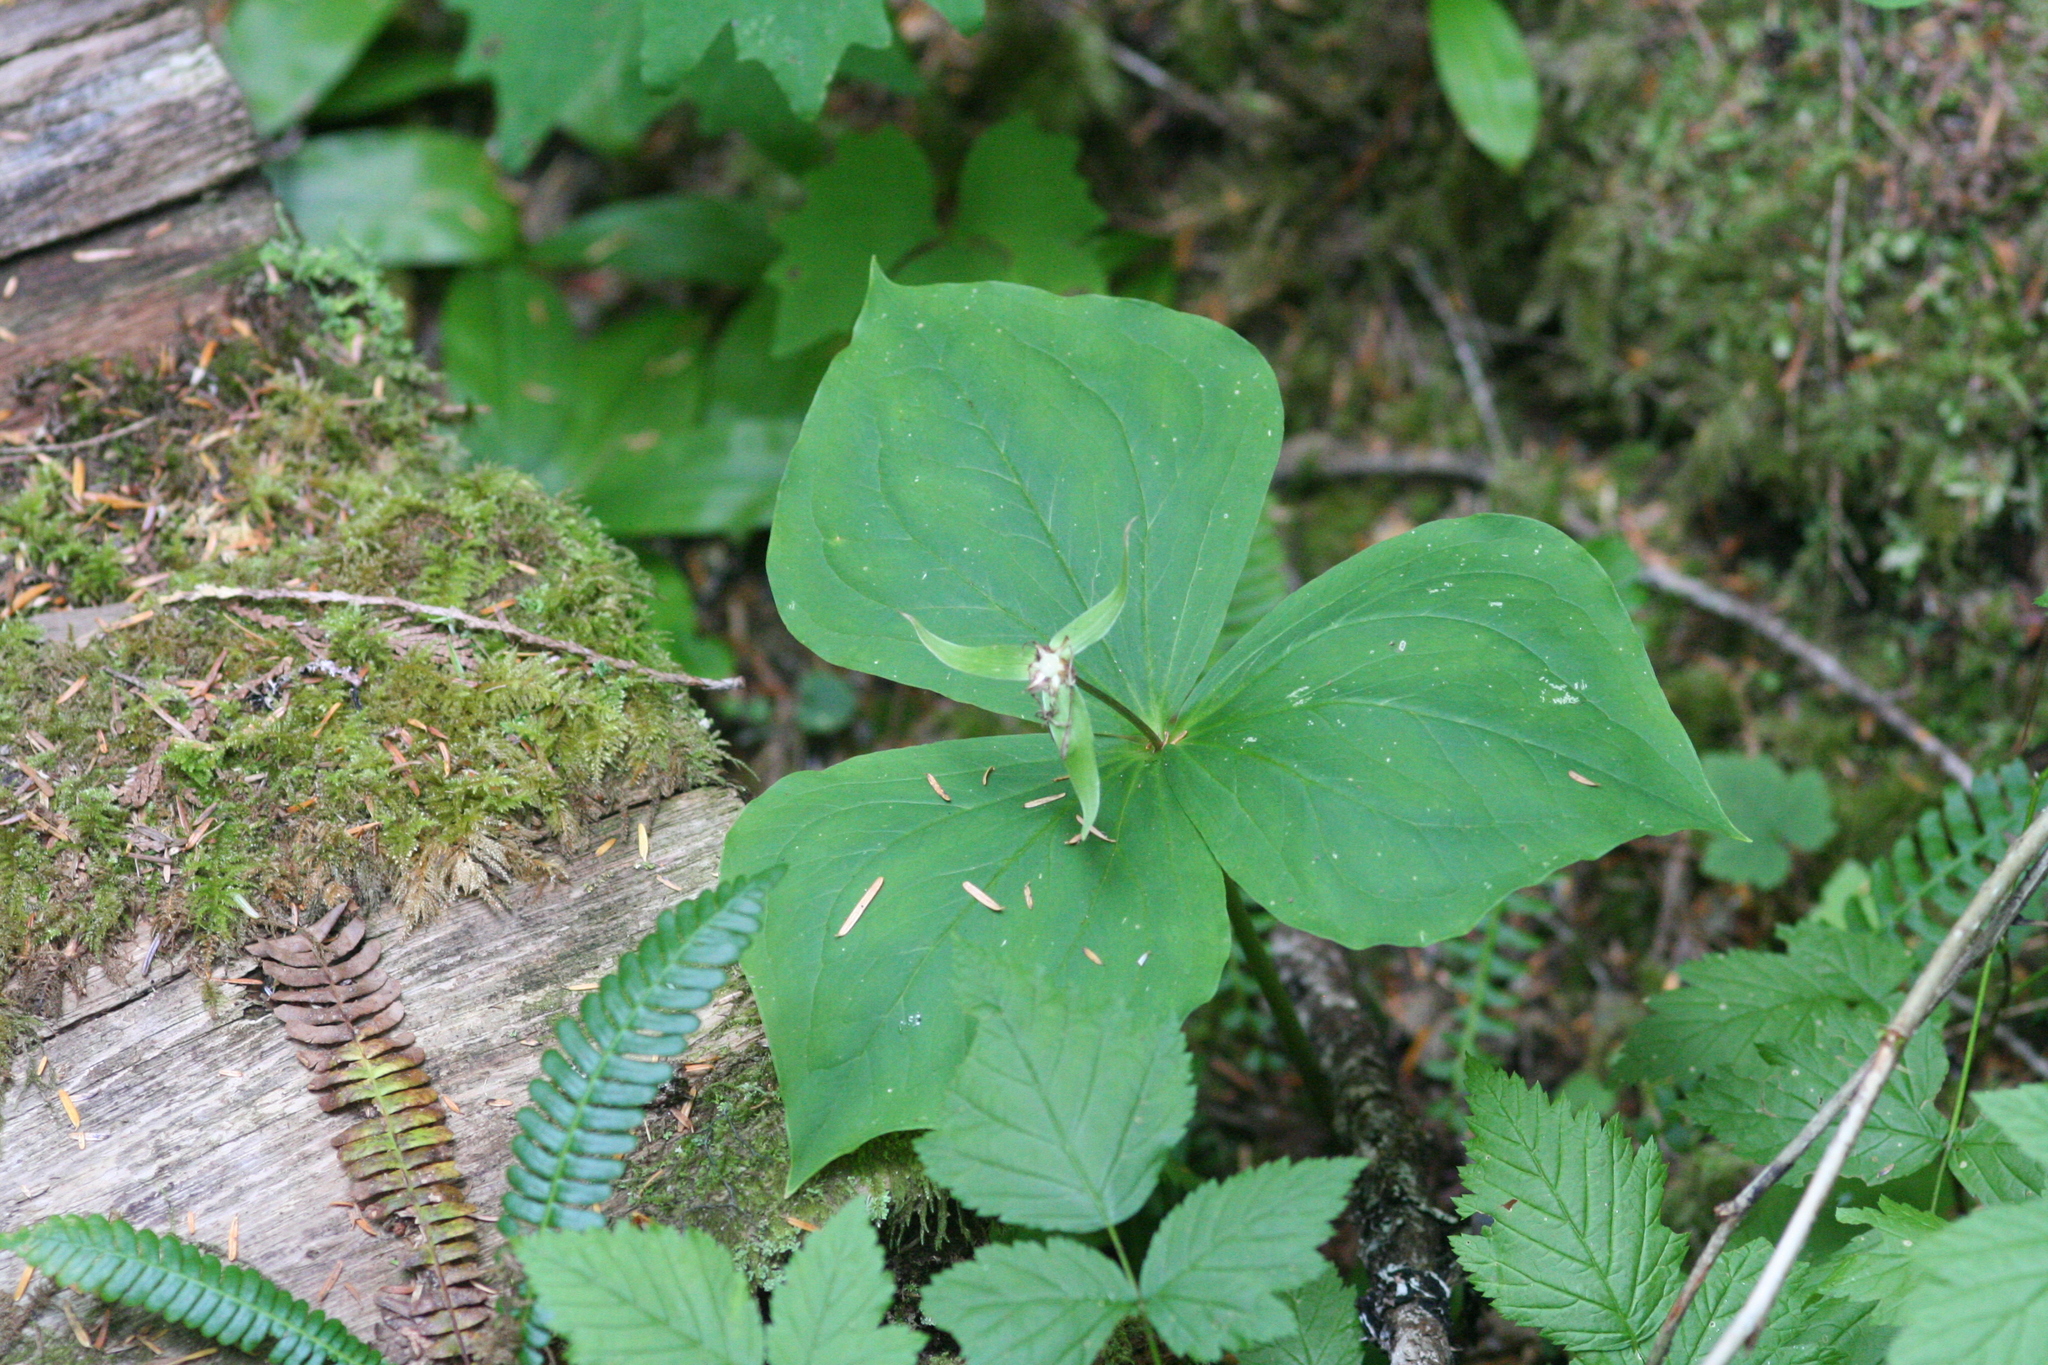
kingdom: Plantae
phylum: Tracheophyta
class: Liliopsida
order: Liliales
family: Melanthiaceae
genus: Trillium
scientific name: Trillium ovatum
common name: Pacific trillium
